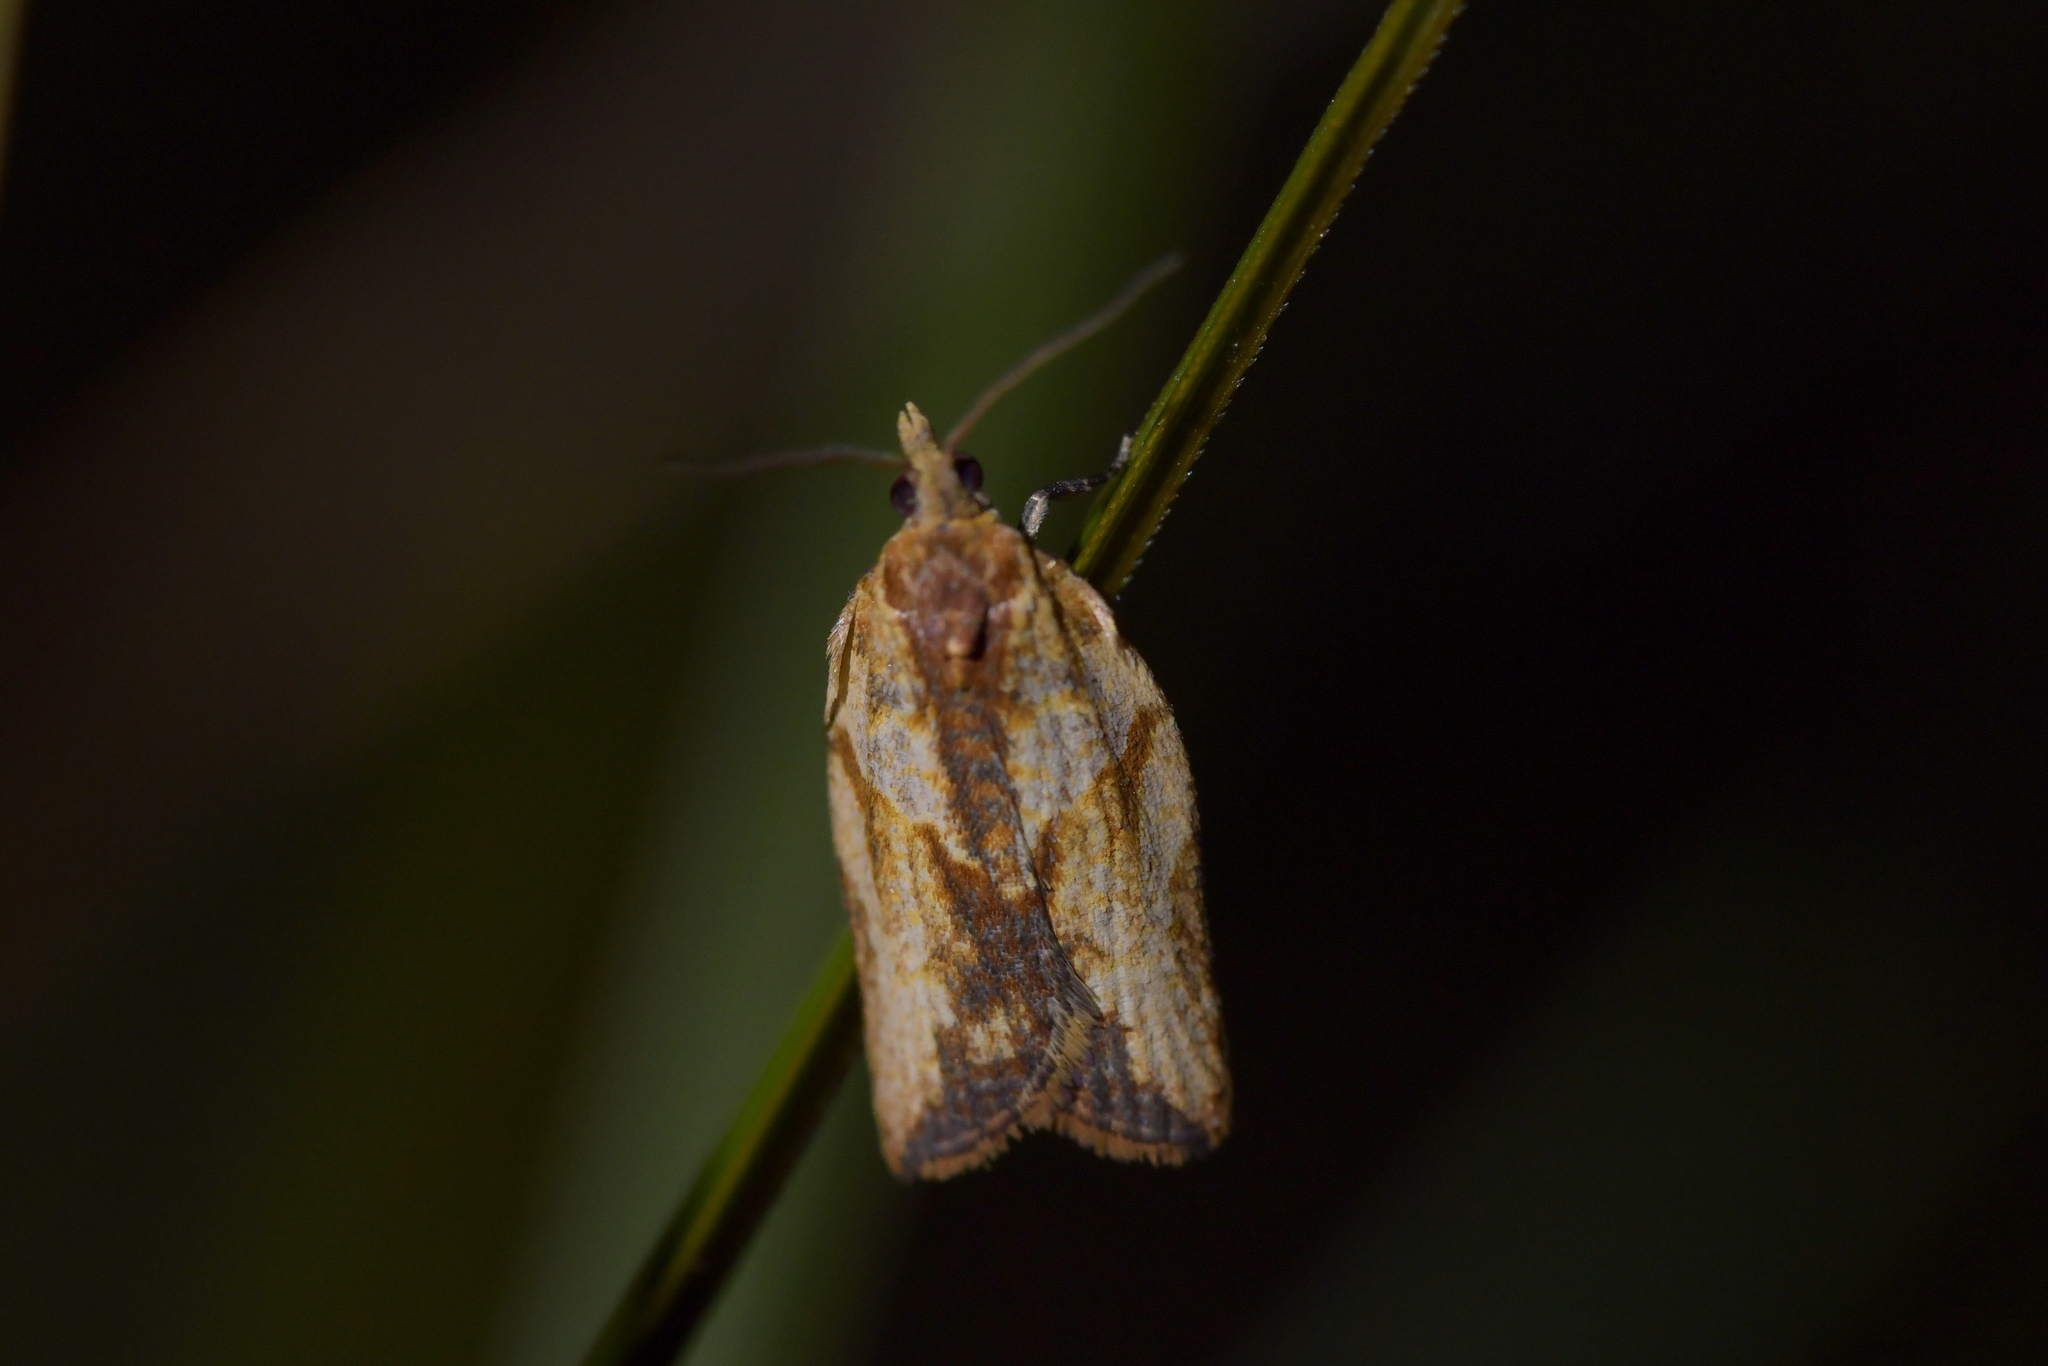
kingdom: Animalia
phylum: Arthropoda
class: Insecta
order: Lepidoptera
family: Tortricidae
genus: Epiphyas
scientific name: Epiphyas postvittana
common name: Light brown apple moth
